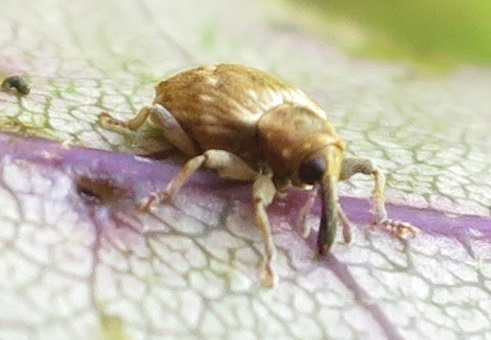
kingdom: Animalia
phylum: Arthropoda
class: Insecta
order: Coleoptera
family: Curculionidae
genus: Aneuma
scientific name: Aneuma compta
